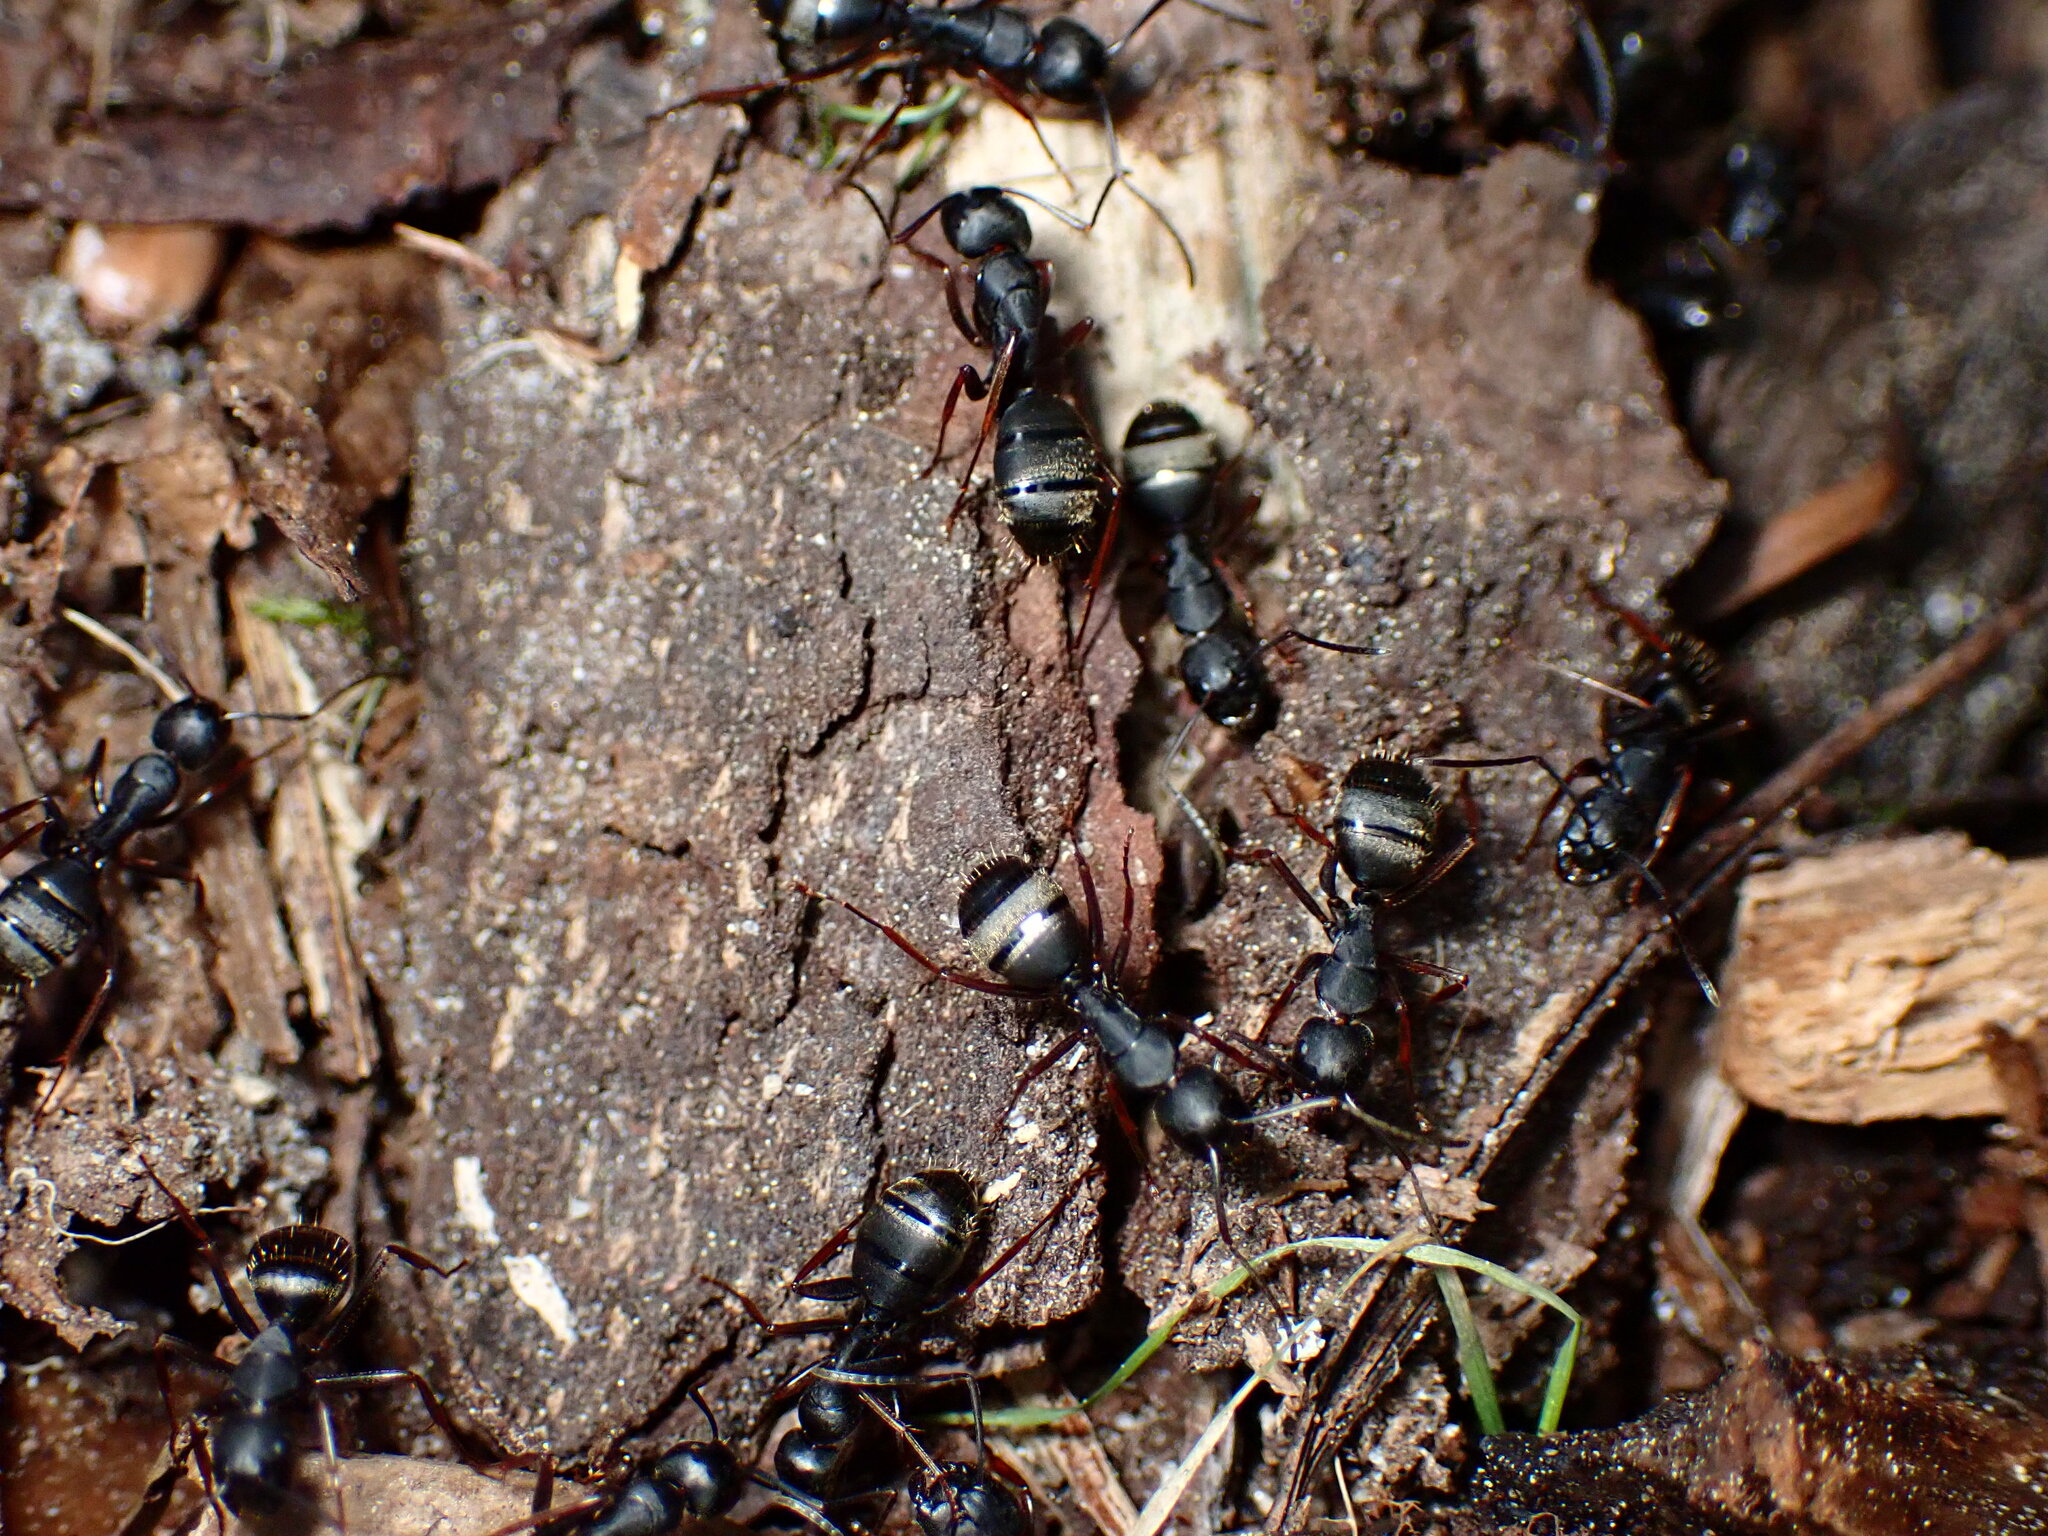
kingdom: Animalia
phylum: Arthropoda
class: Insecta
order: Hymenoptera
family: Formicidae
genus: Camponotus
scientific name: Camponotus modoc
